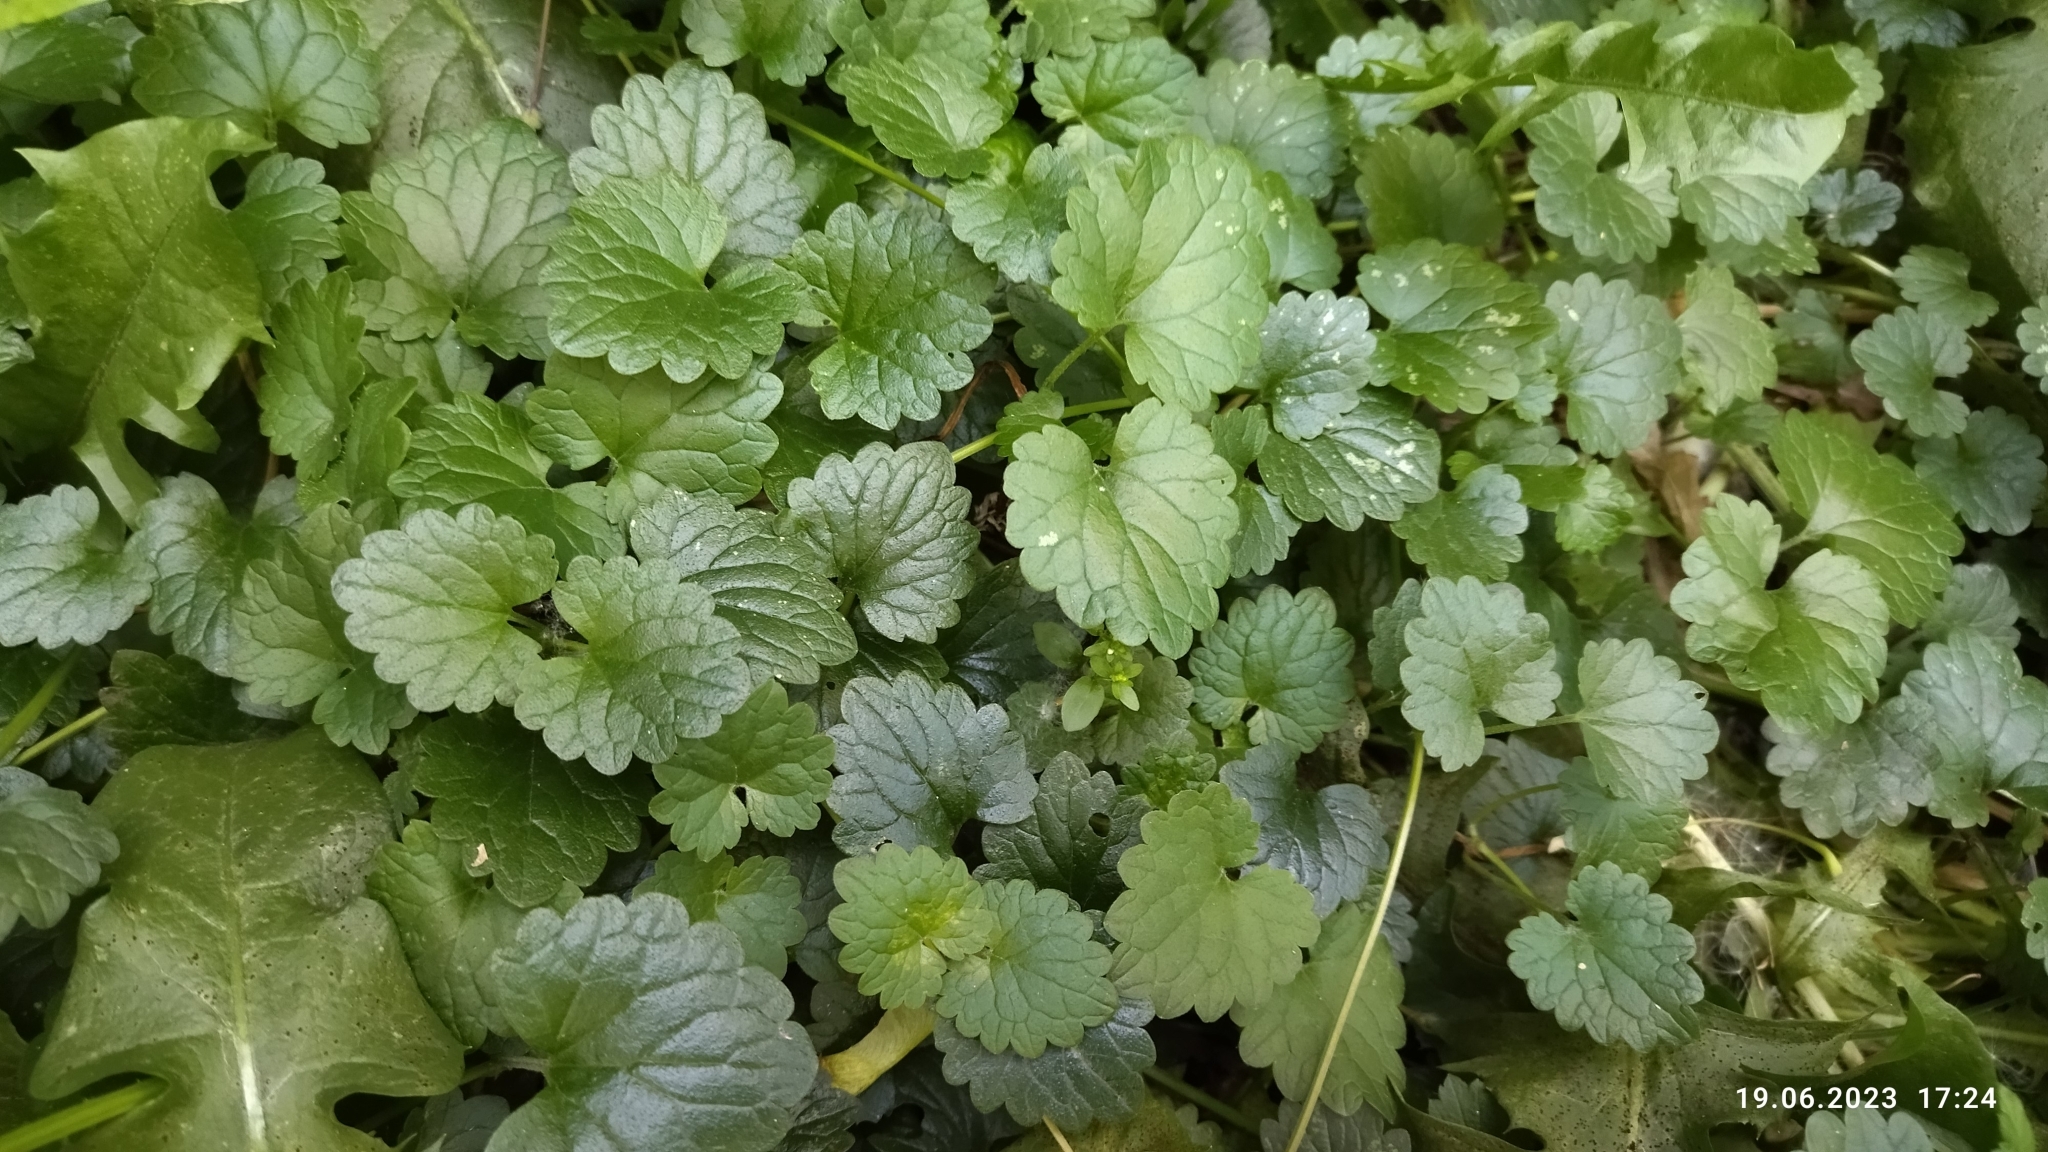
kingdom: Plantae
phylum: Tracheophyta
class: Magnoliopsida
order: Lamiales
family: Lamiaceae
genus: Glechoma
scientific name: Glechoma hederacea
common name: Ground ivy
